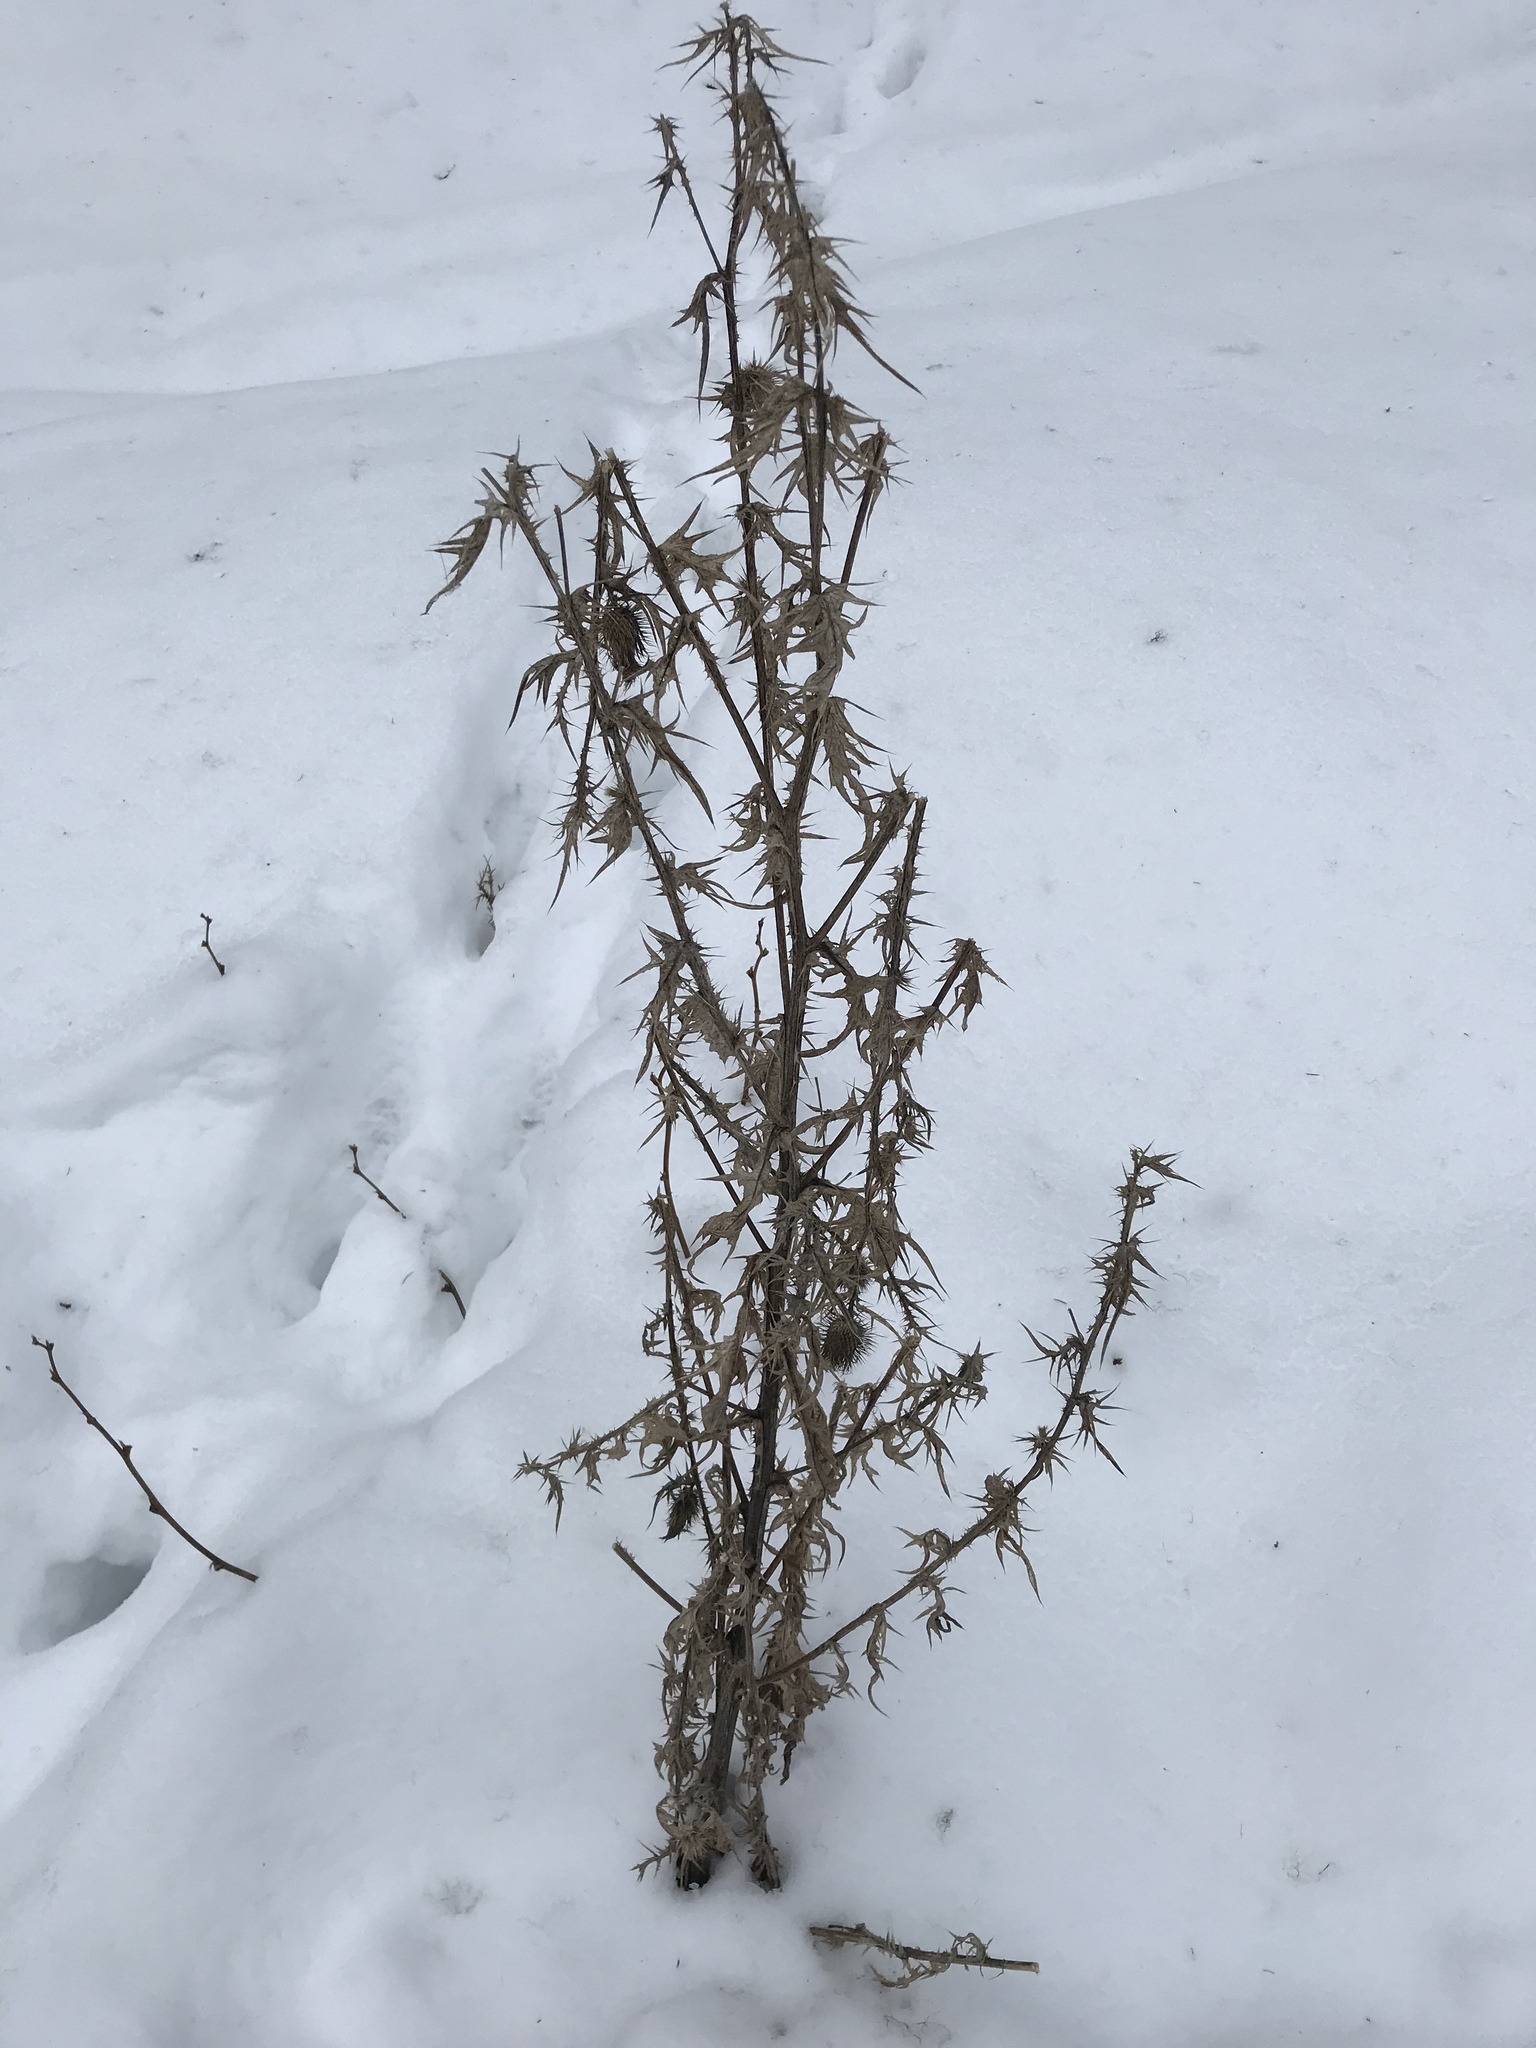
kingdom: Plantae
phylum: Tracheophyta
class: Magnoliopsida
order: Asterales
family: Asteraceae
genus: Cirsium
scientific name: Cirsium vulgare
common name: Bull thistle
